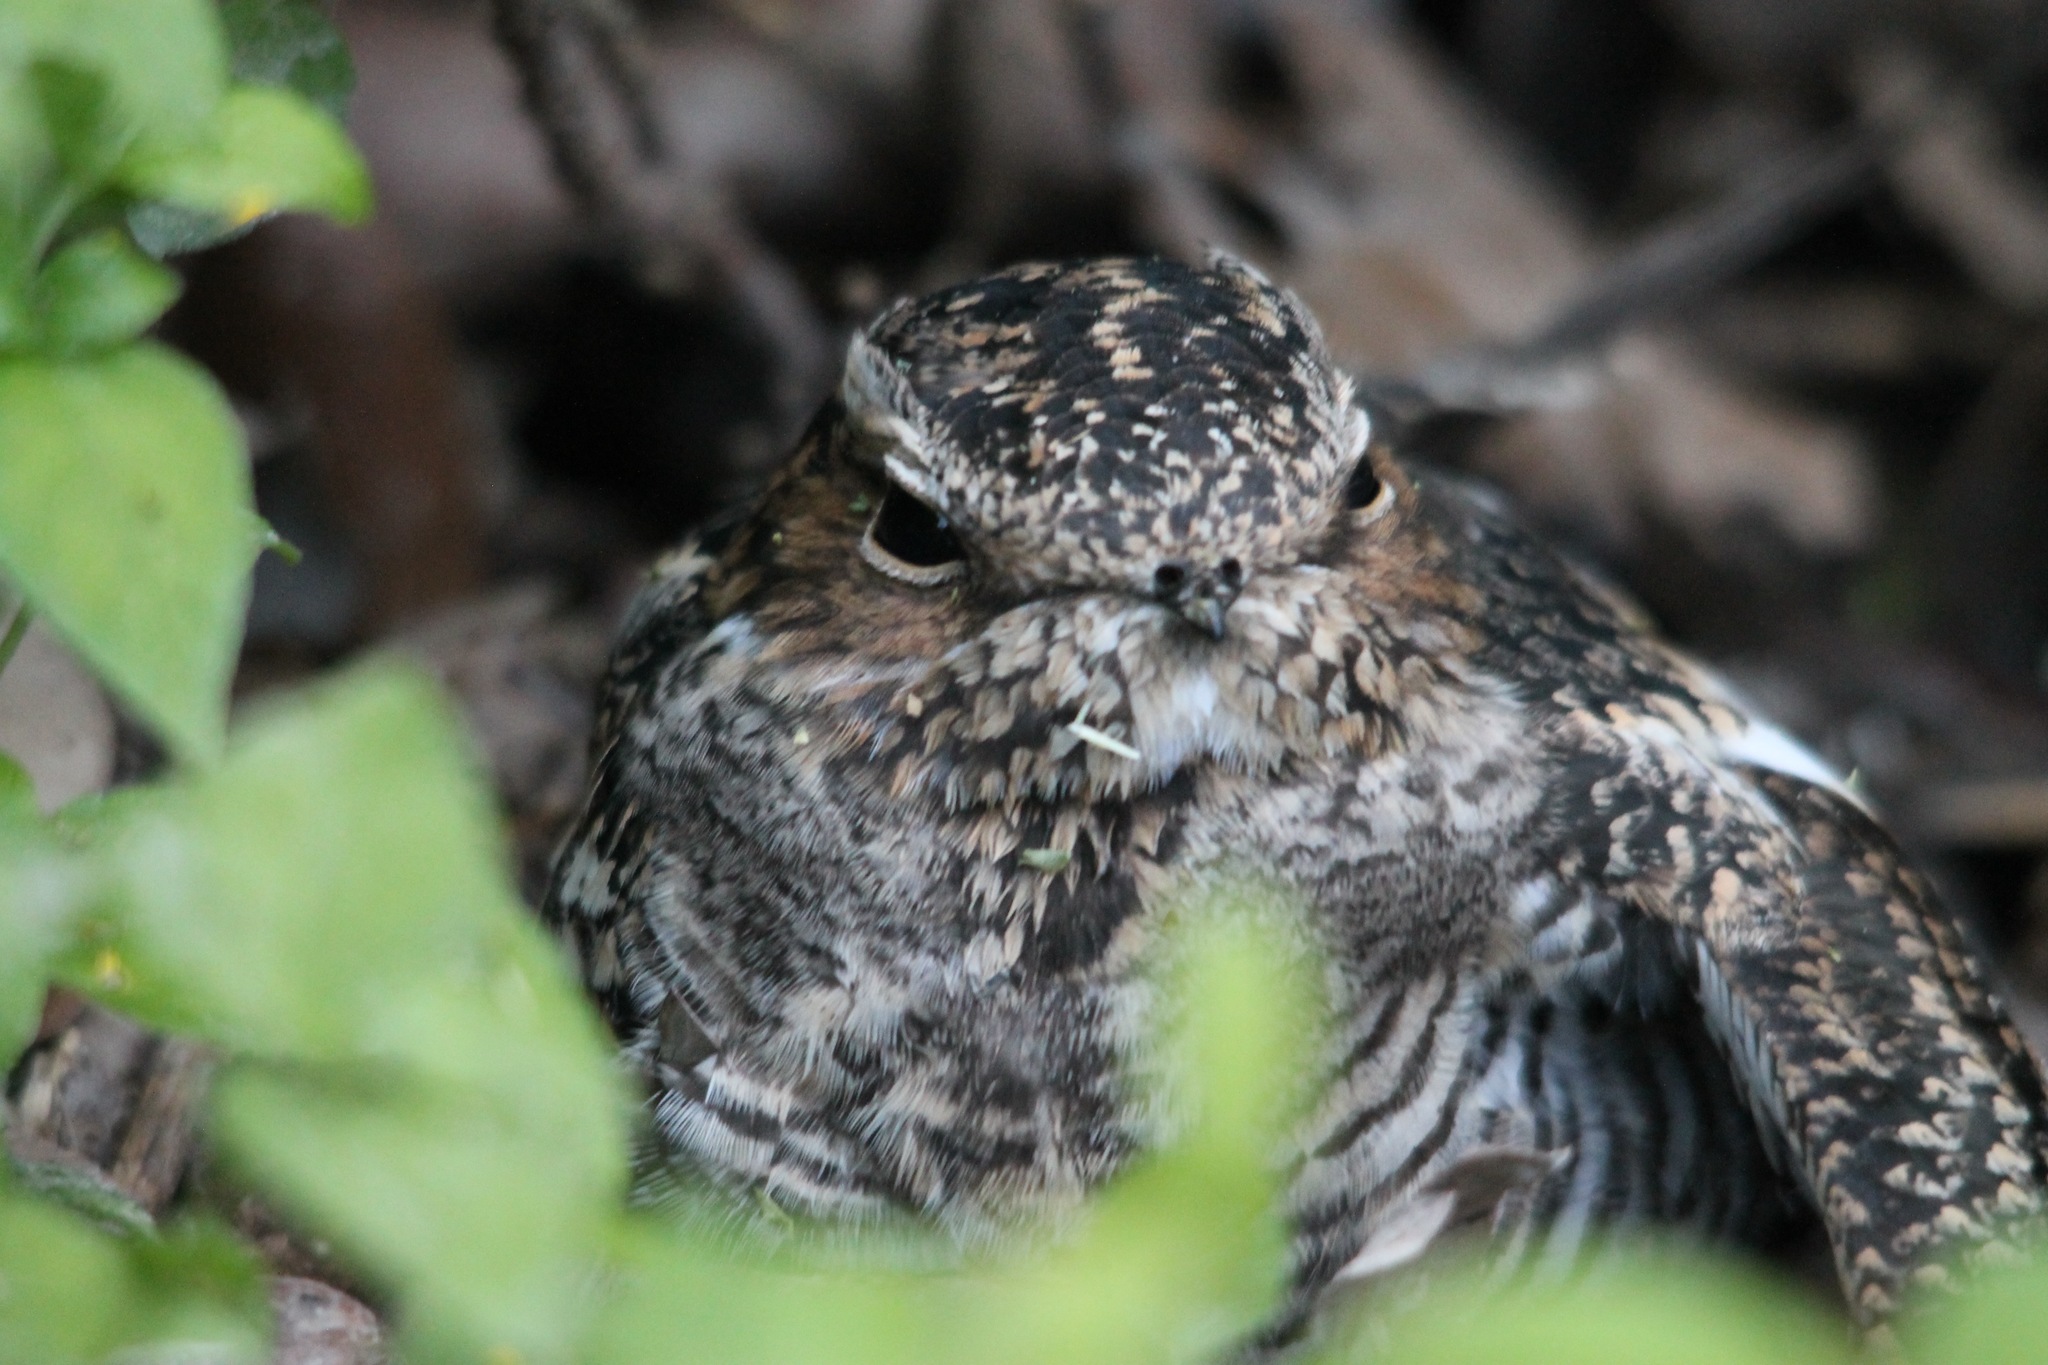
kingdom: Animalia
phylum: Chordata
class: Aves
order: Caprimulgiformes
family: Caprimulgidae
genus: Chordeiles
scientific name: Chordeiles minor
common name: Common nighthawk
